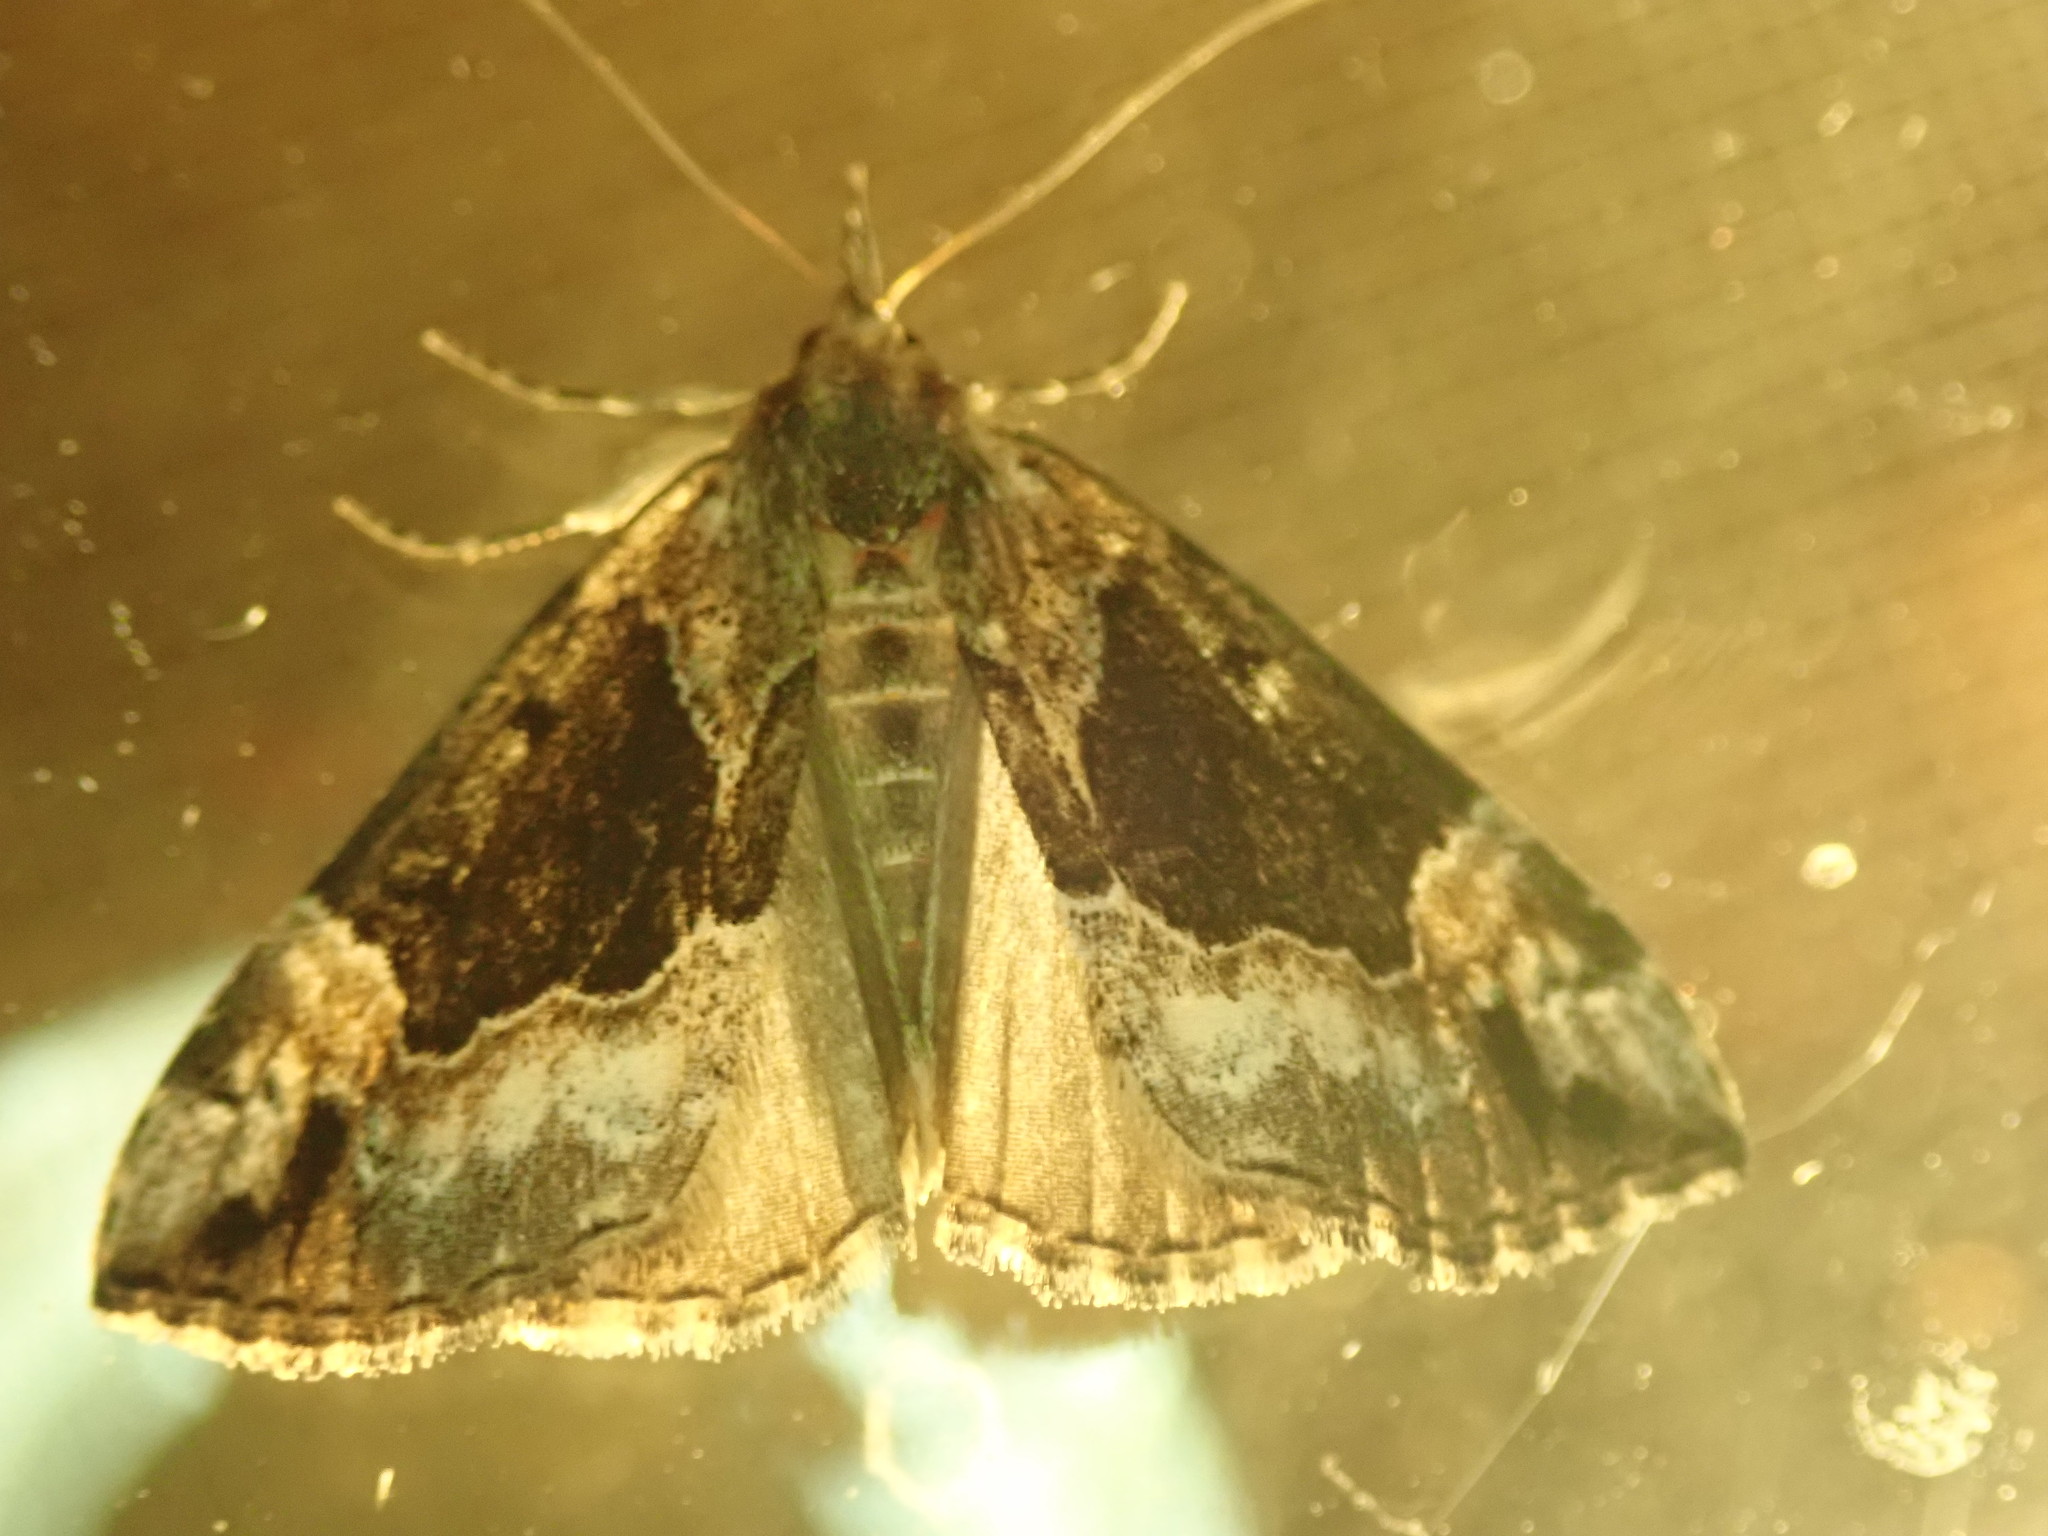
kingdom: Animalia
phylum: Arthropoda
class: Insecta
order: Lepidoptera
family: Erebidae
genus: Hypena
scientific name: Hypena palparia
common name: Mottled bomolocha moth
